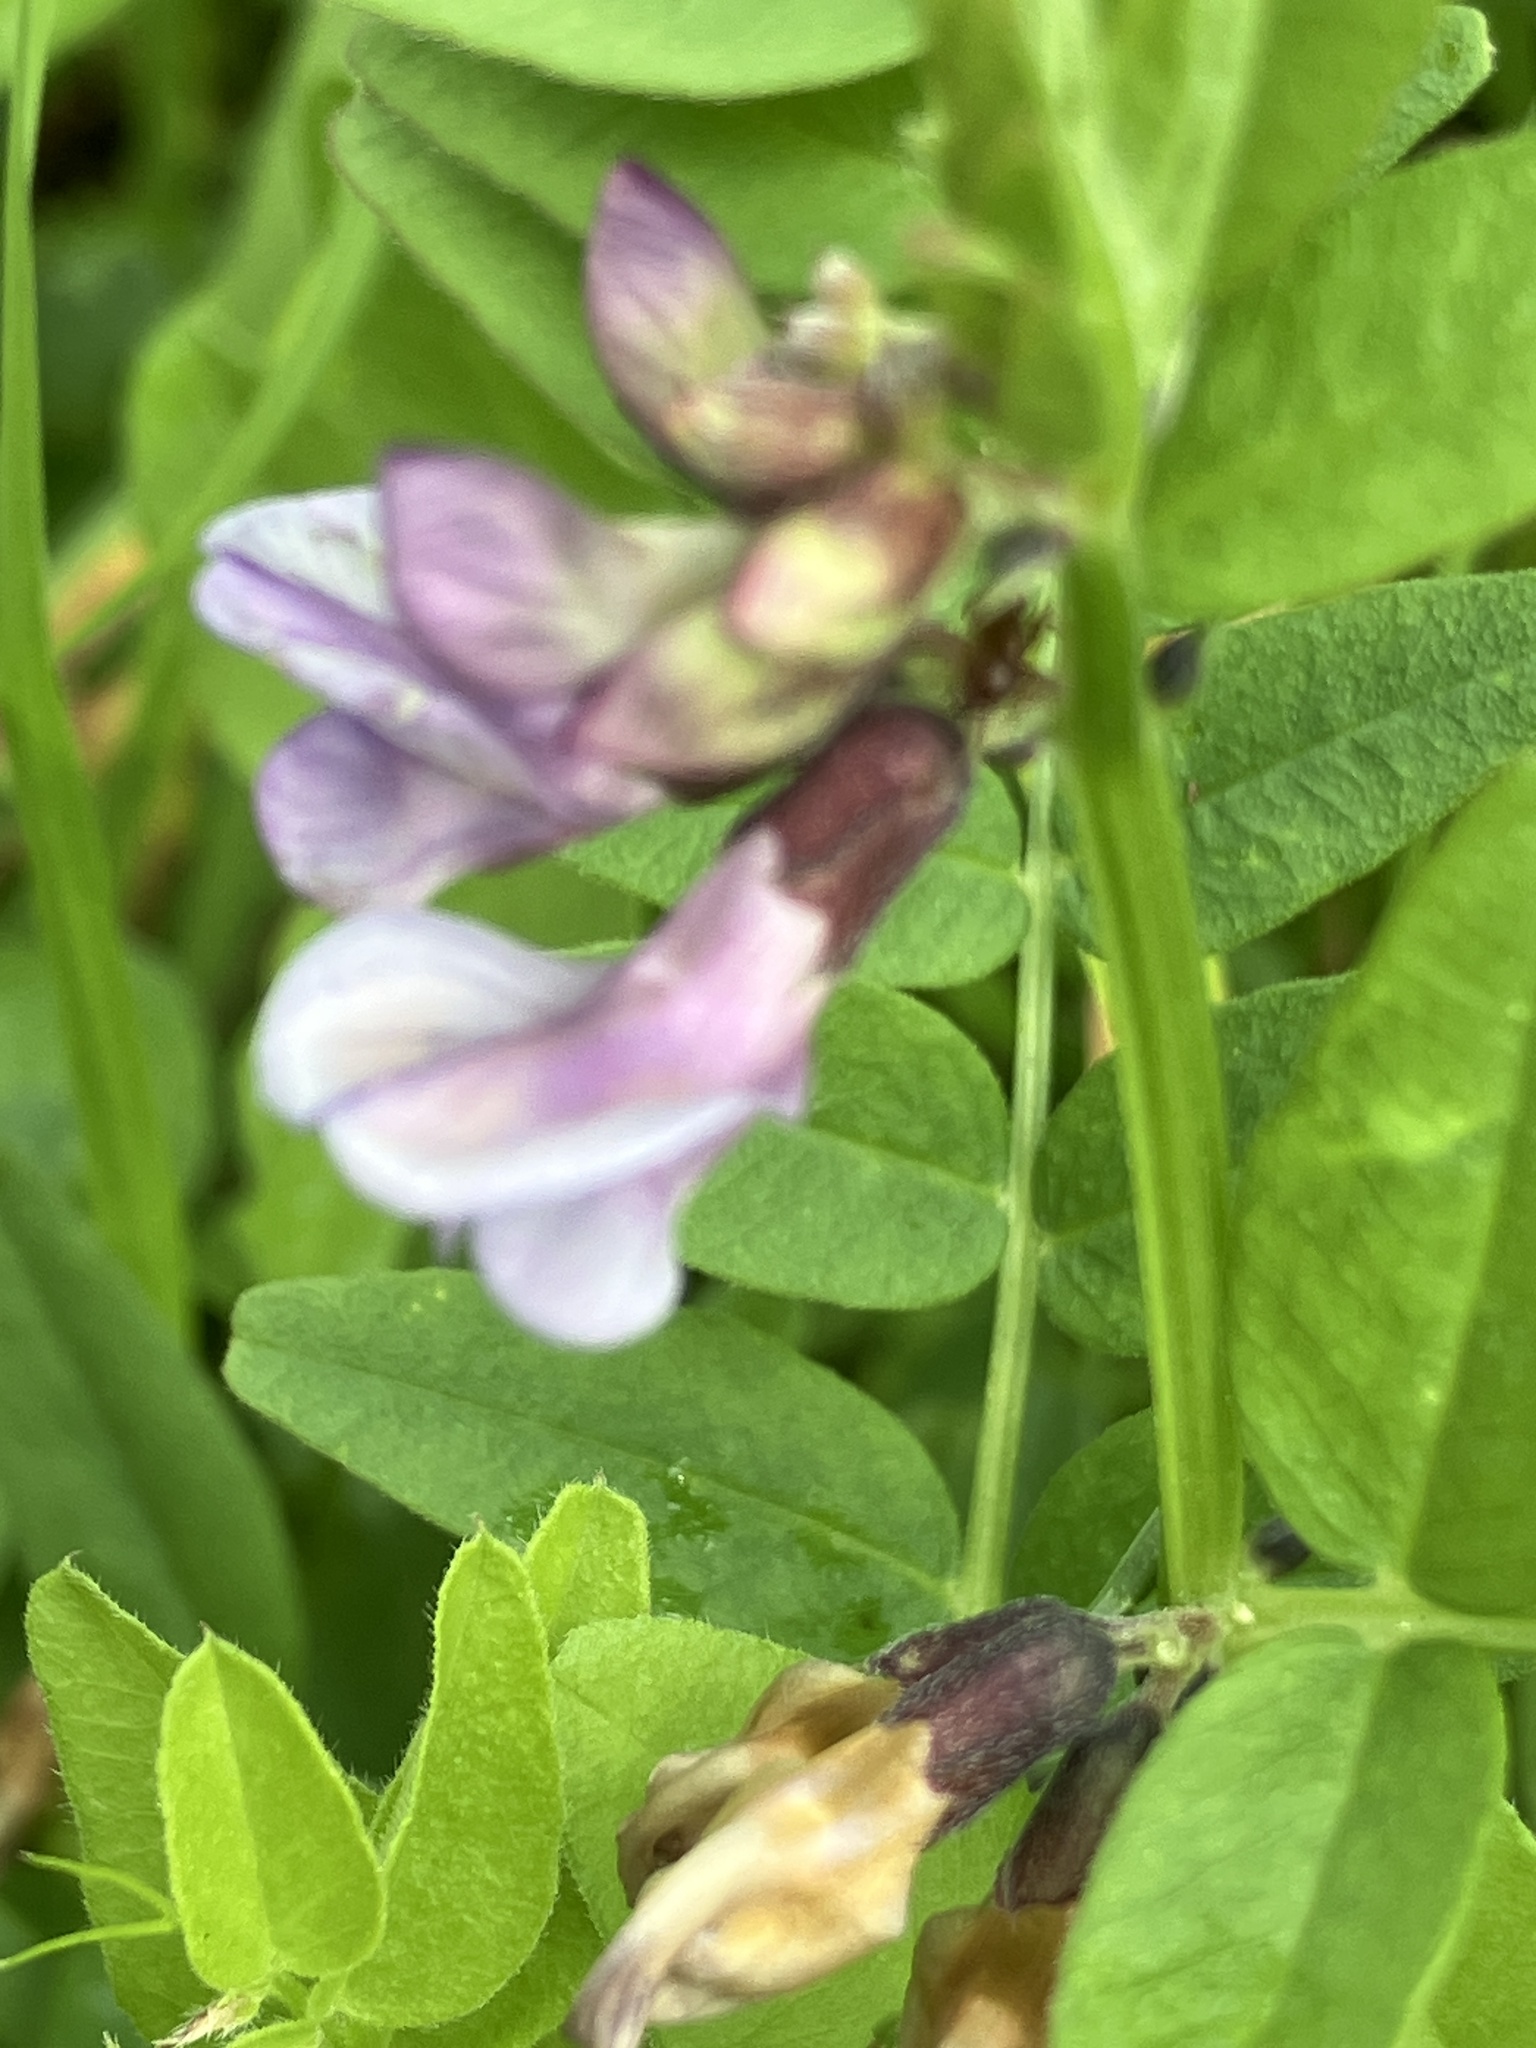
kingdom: Plantae
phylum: Tracheophyta
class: Magnoliopsida
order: Fabales
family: Fabaceae
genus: Vicia
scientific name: Vicia sepium
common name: Bush vetch
